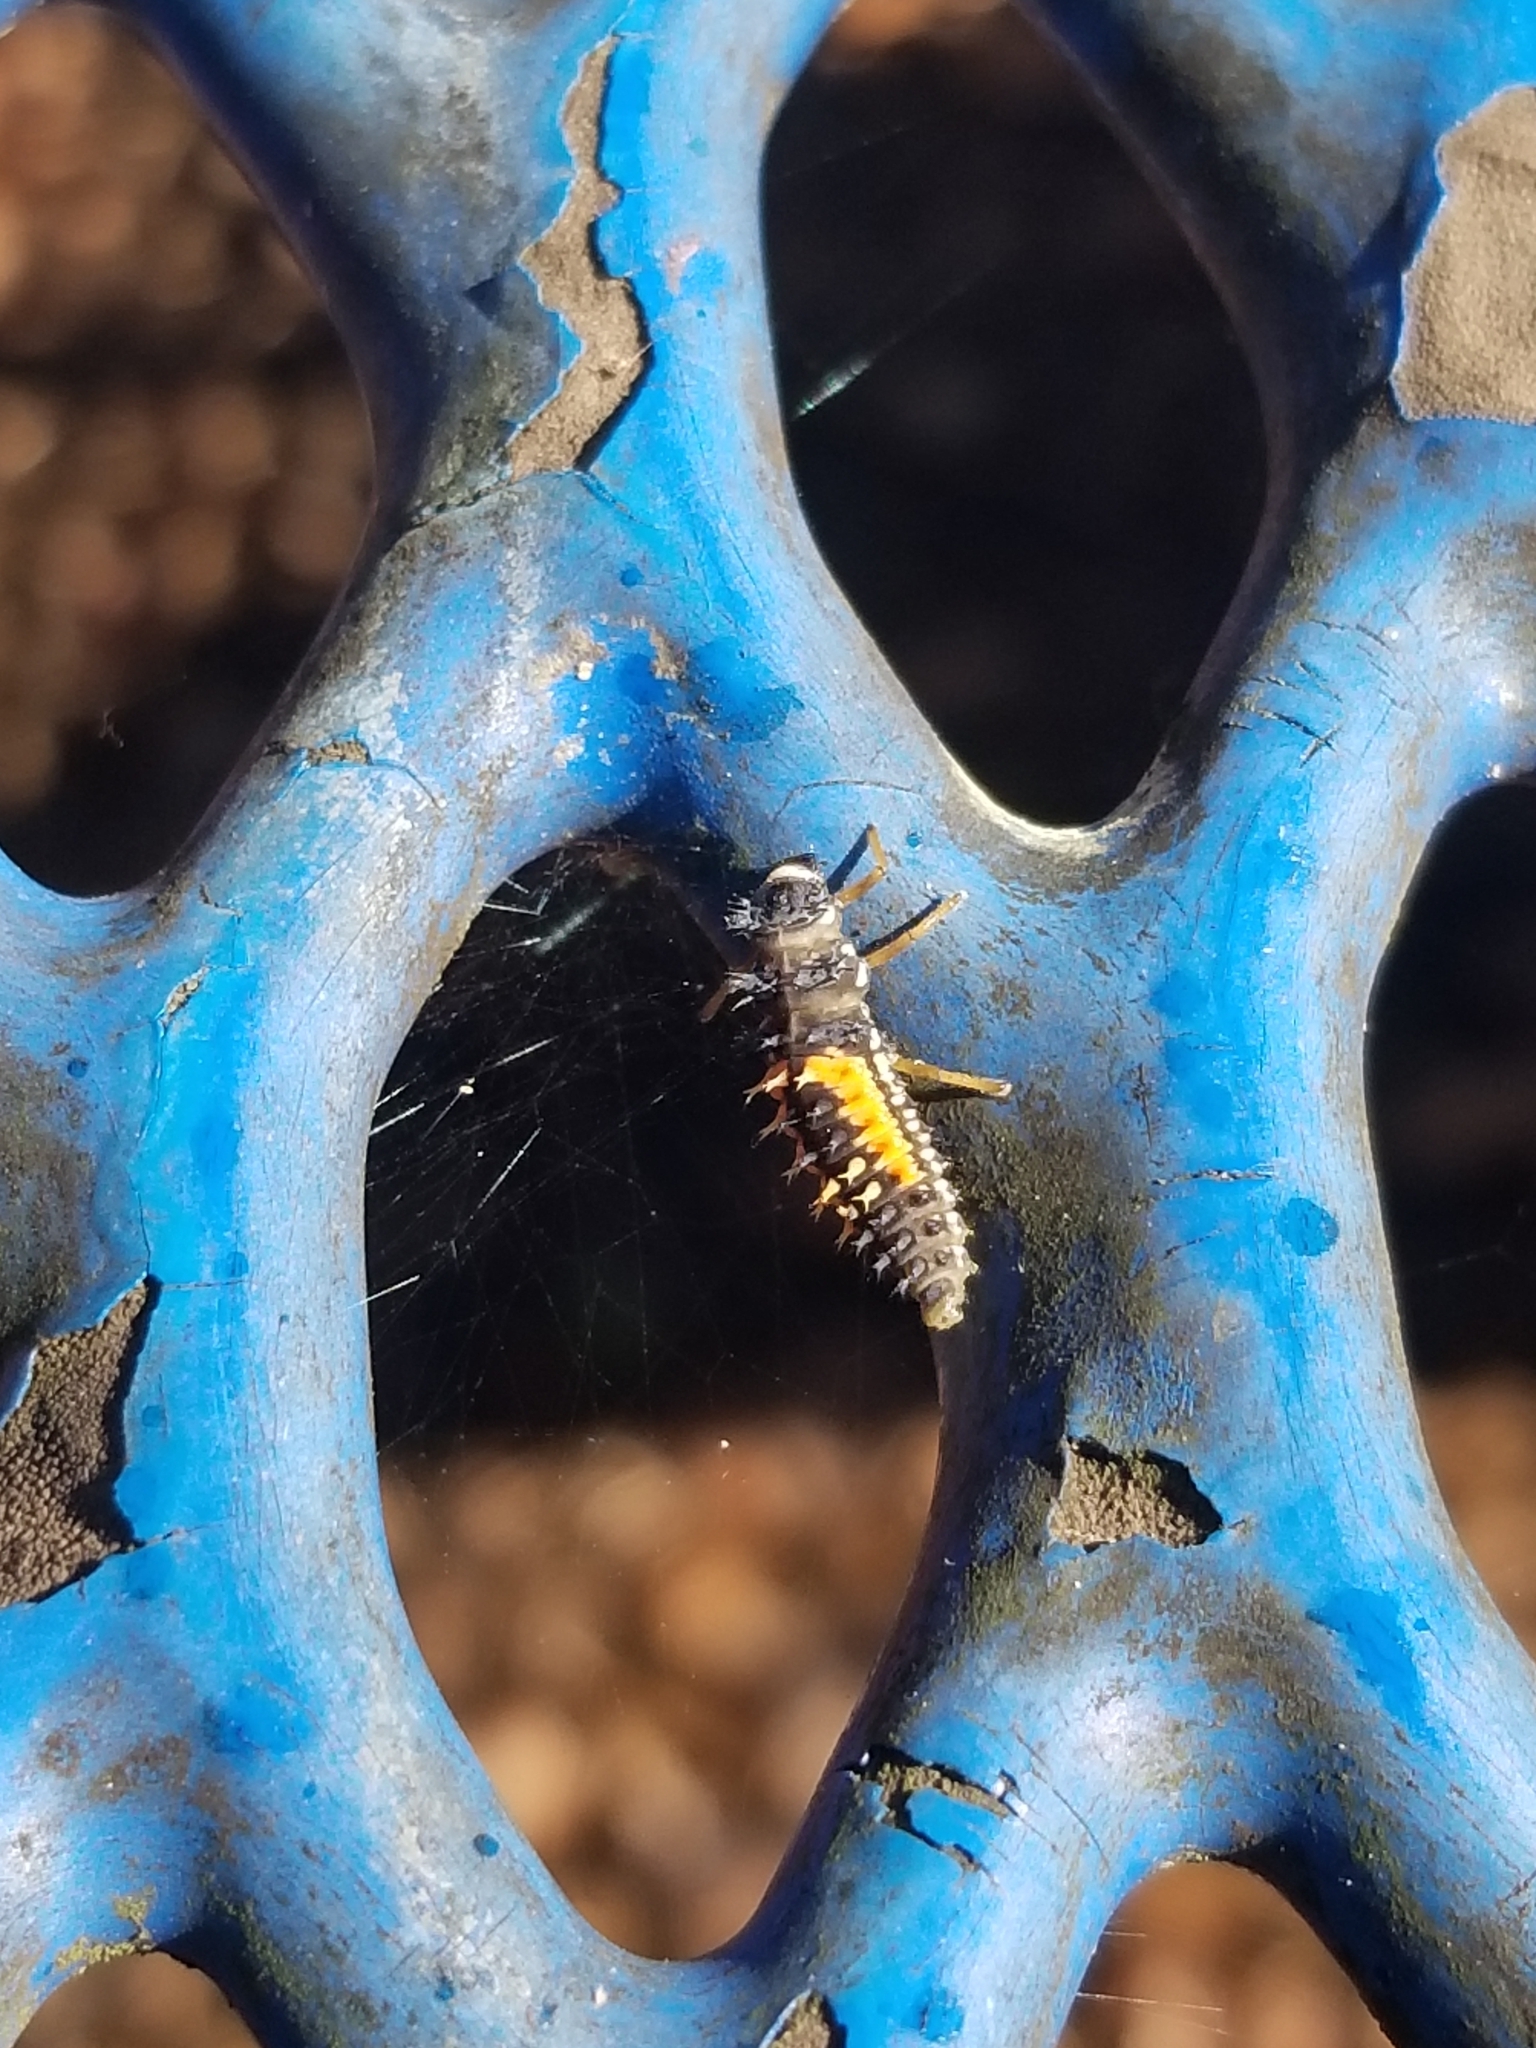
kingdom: Animalia
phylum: Arthropoda
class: Insecta
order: Coleoptera
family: Coccinellidae
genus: Harmonia
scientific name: Harmonia axyridis
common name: Harlequin ladybird
